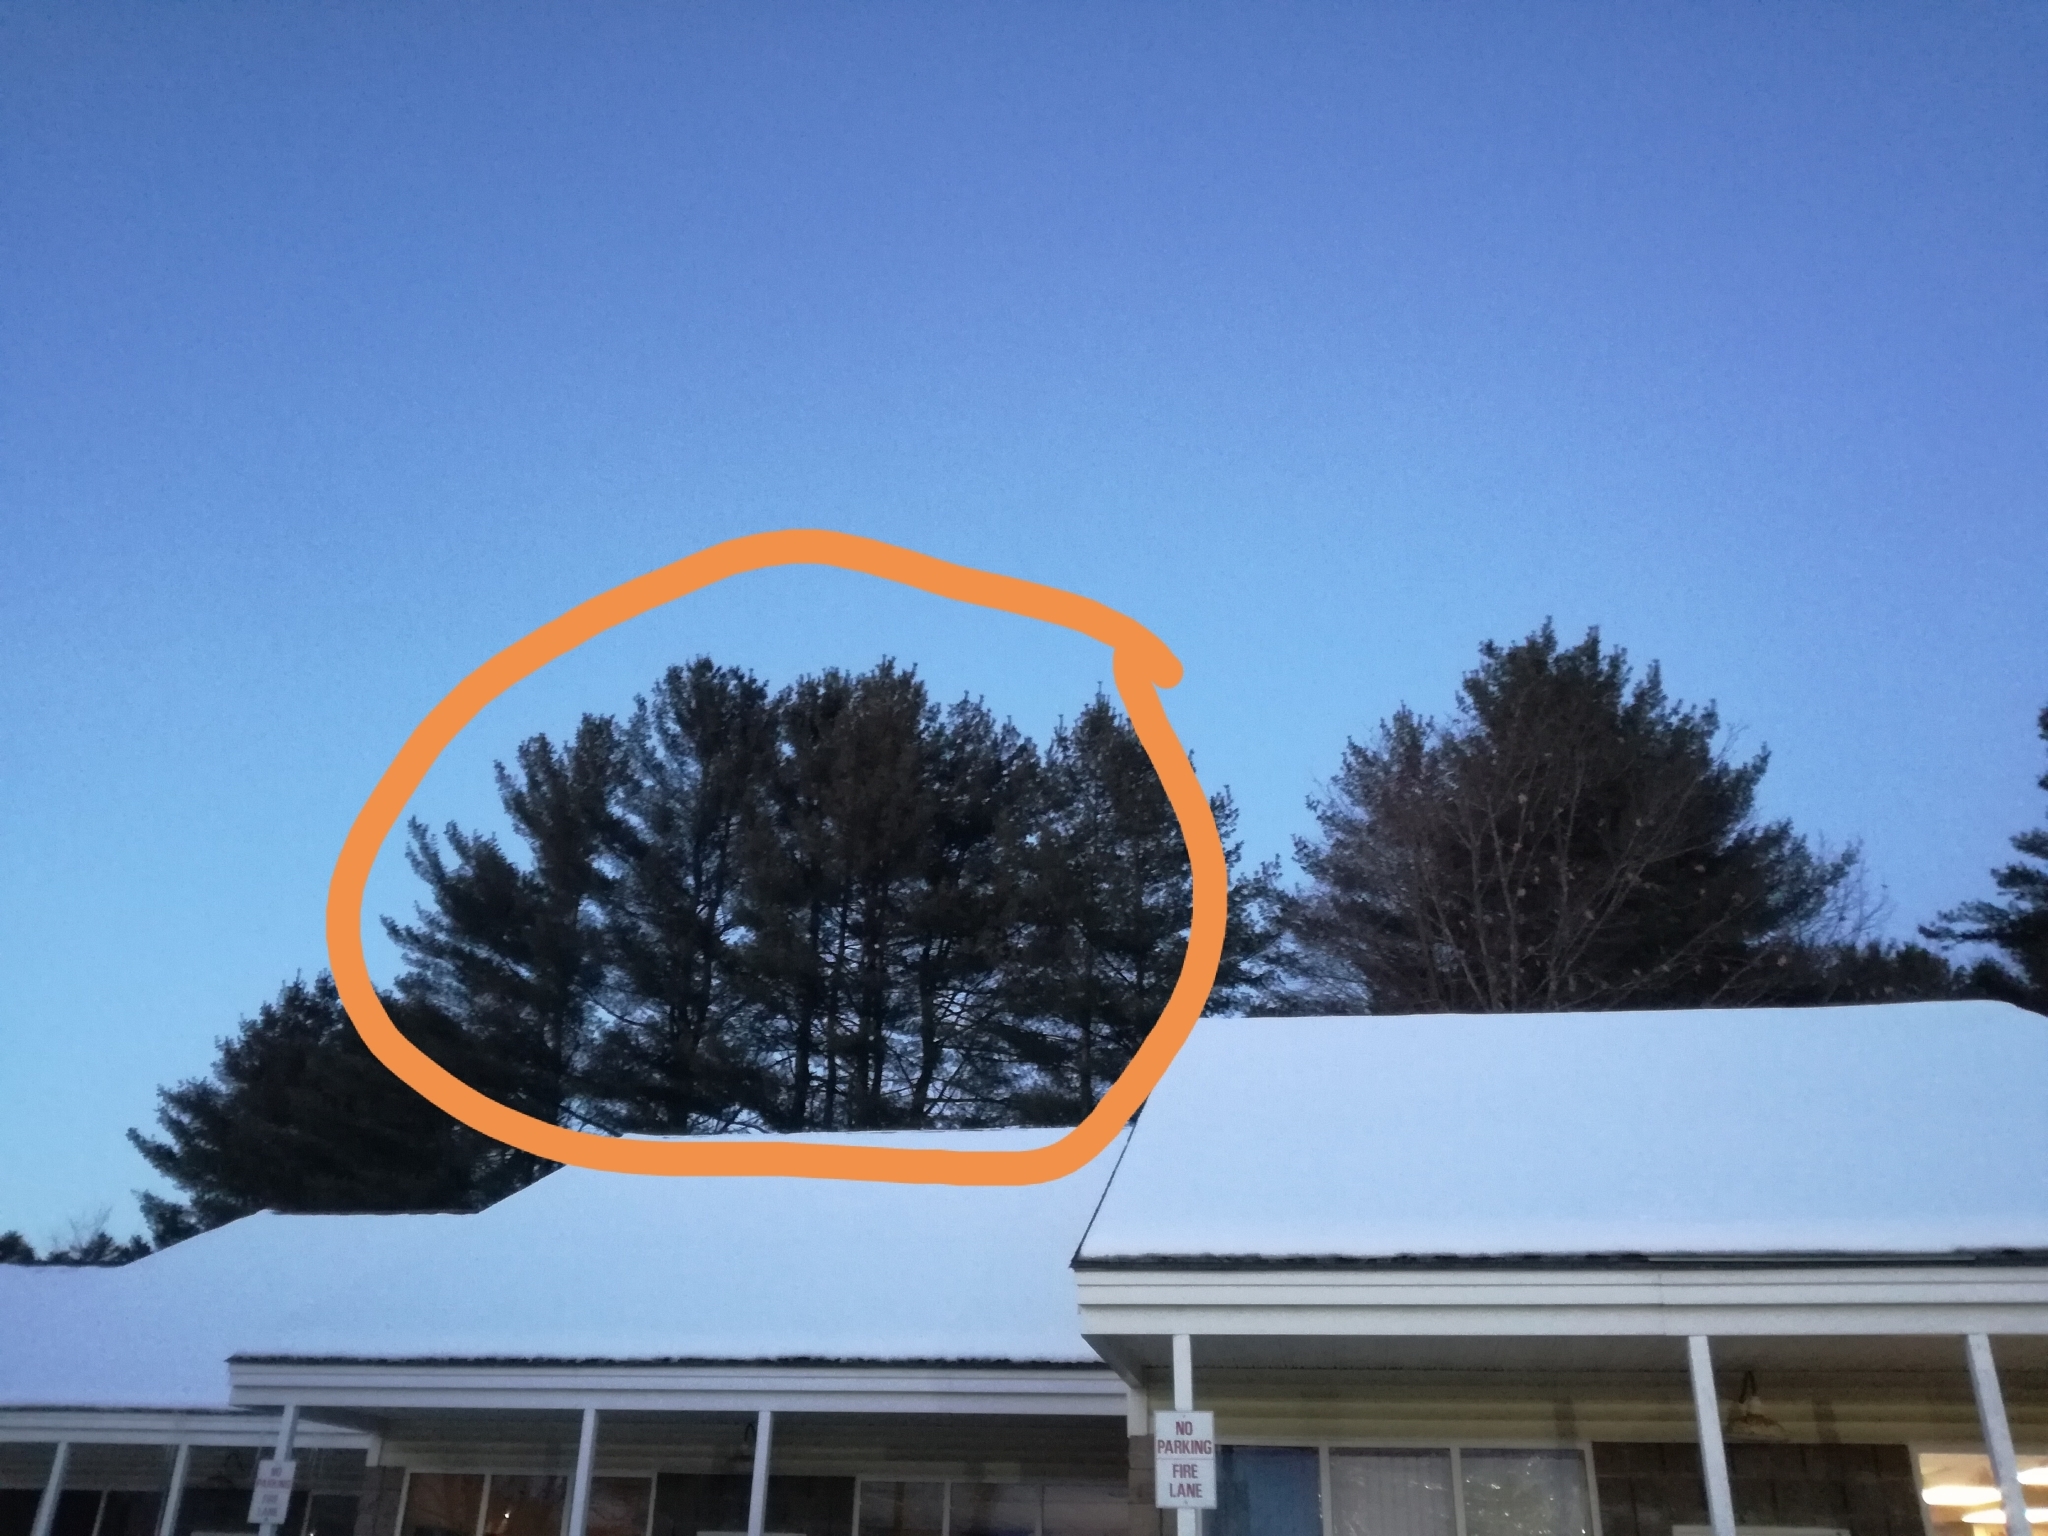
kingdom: Plantae
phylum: Tracheophyta
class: Pinopsida
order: Pinales
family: Pinaceae
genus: Pinus
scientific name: Pinus strobus
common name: Weymouth pine
